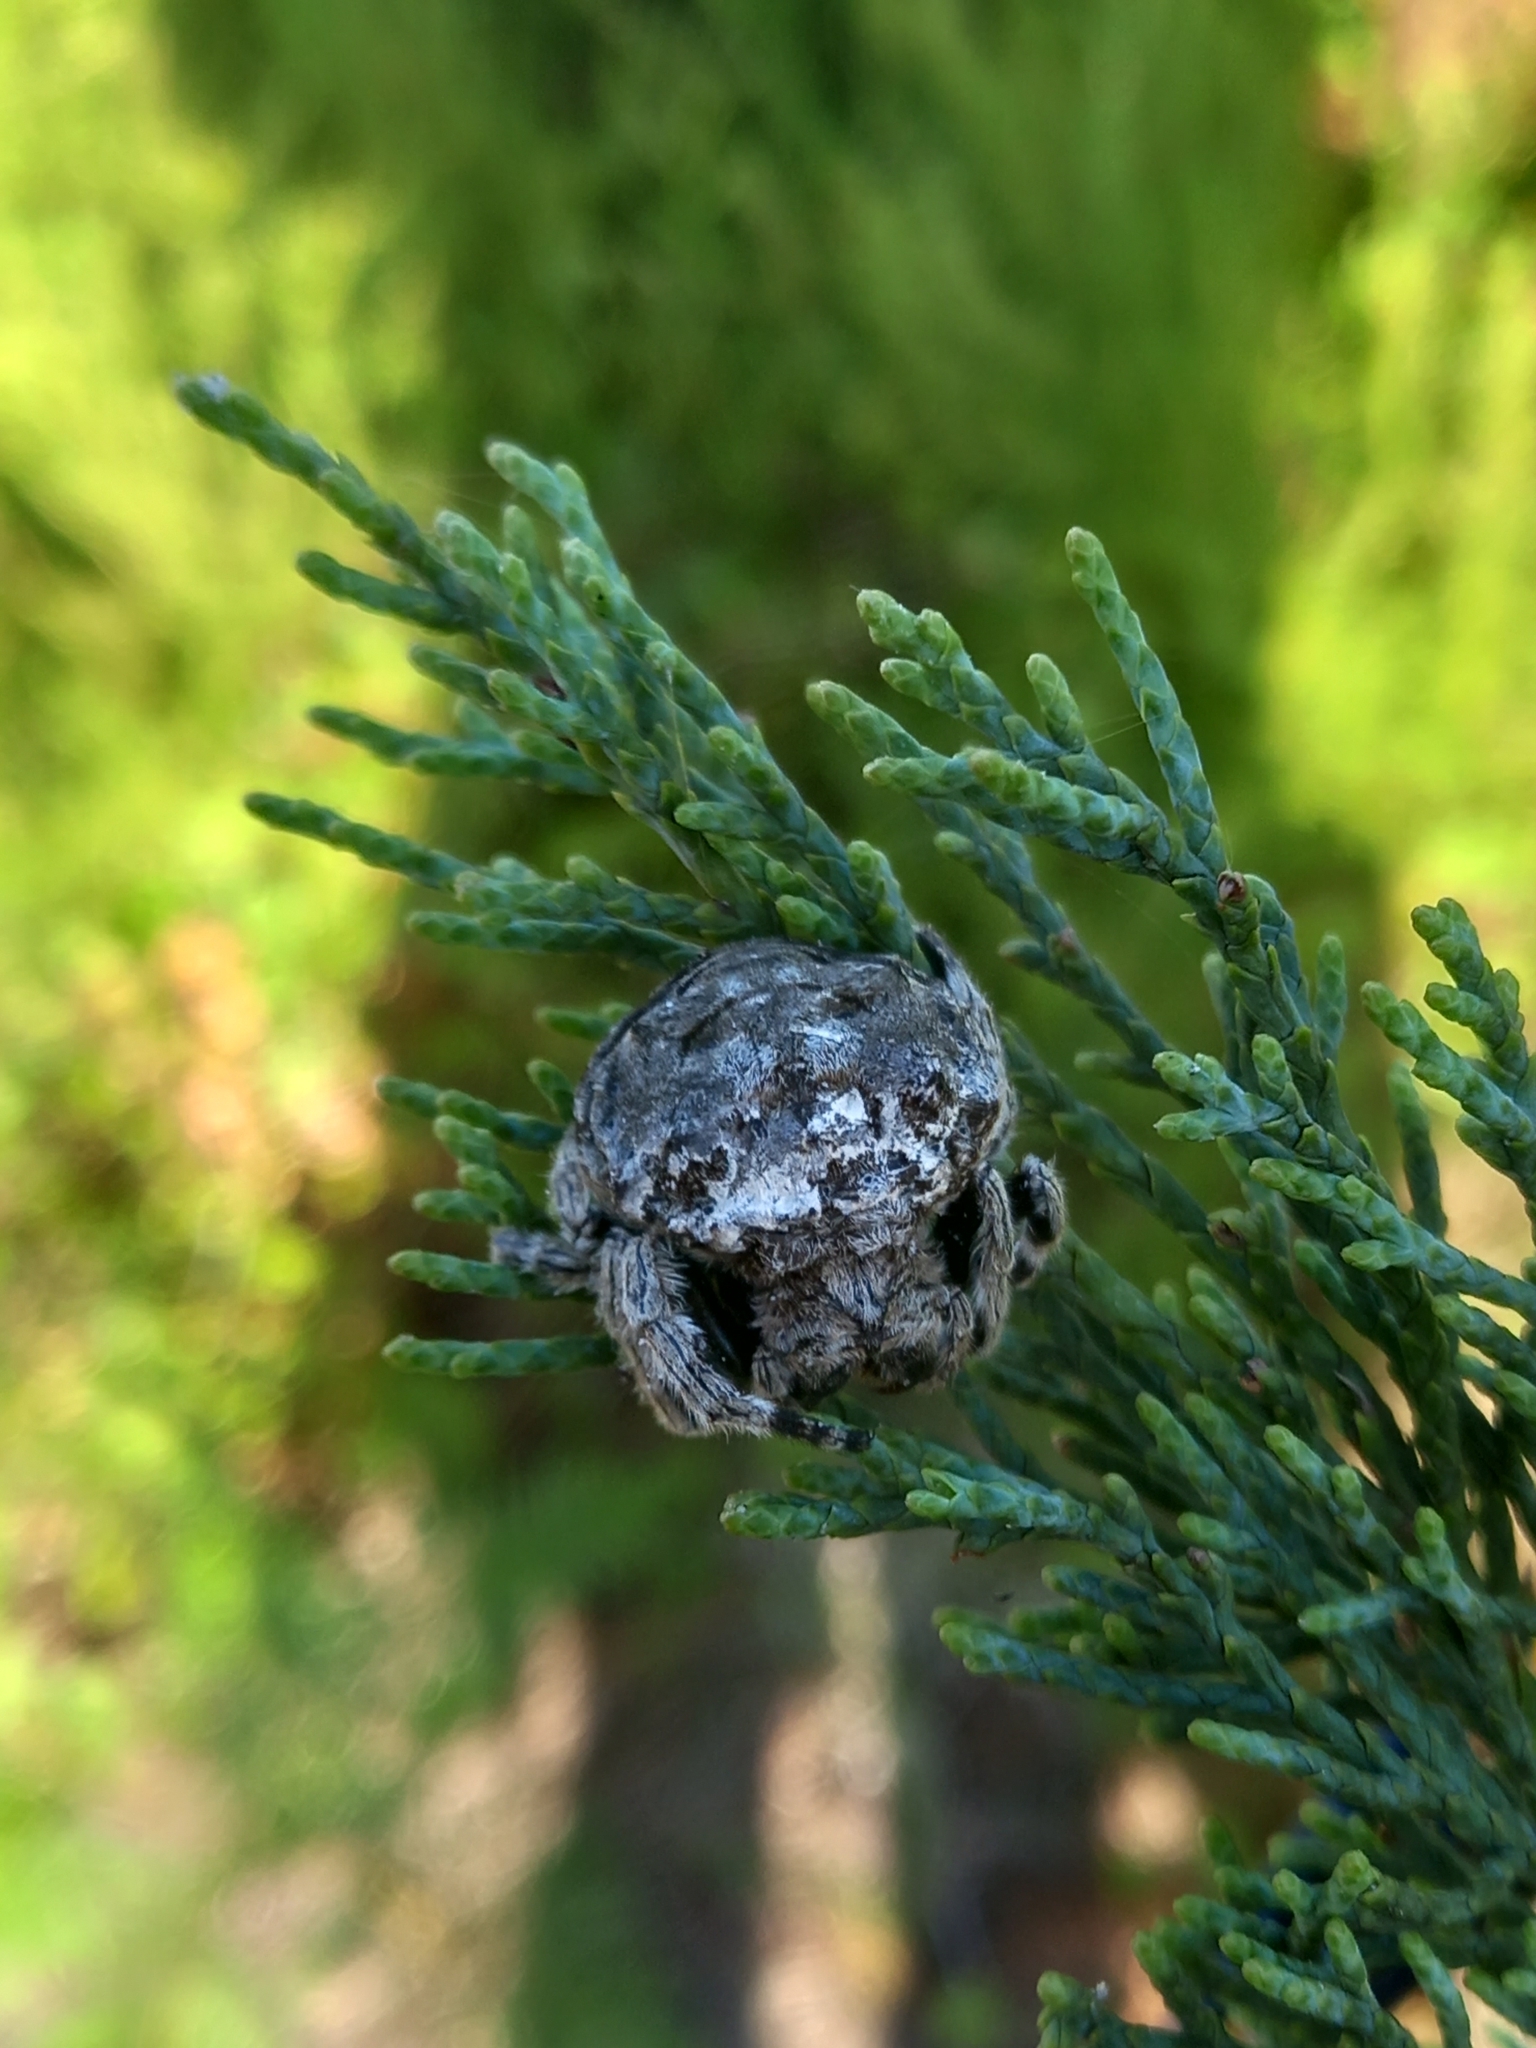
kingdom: Animalia
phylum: Arthropoda
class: Arachnida
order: Araneae
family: Araneidae
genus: Caerostris
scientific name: Caerostris sexcuspidata
